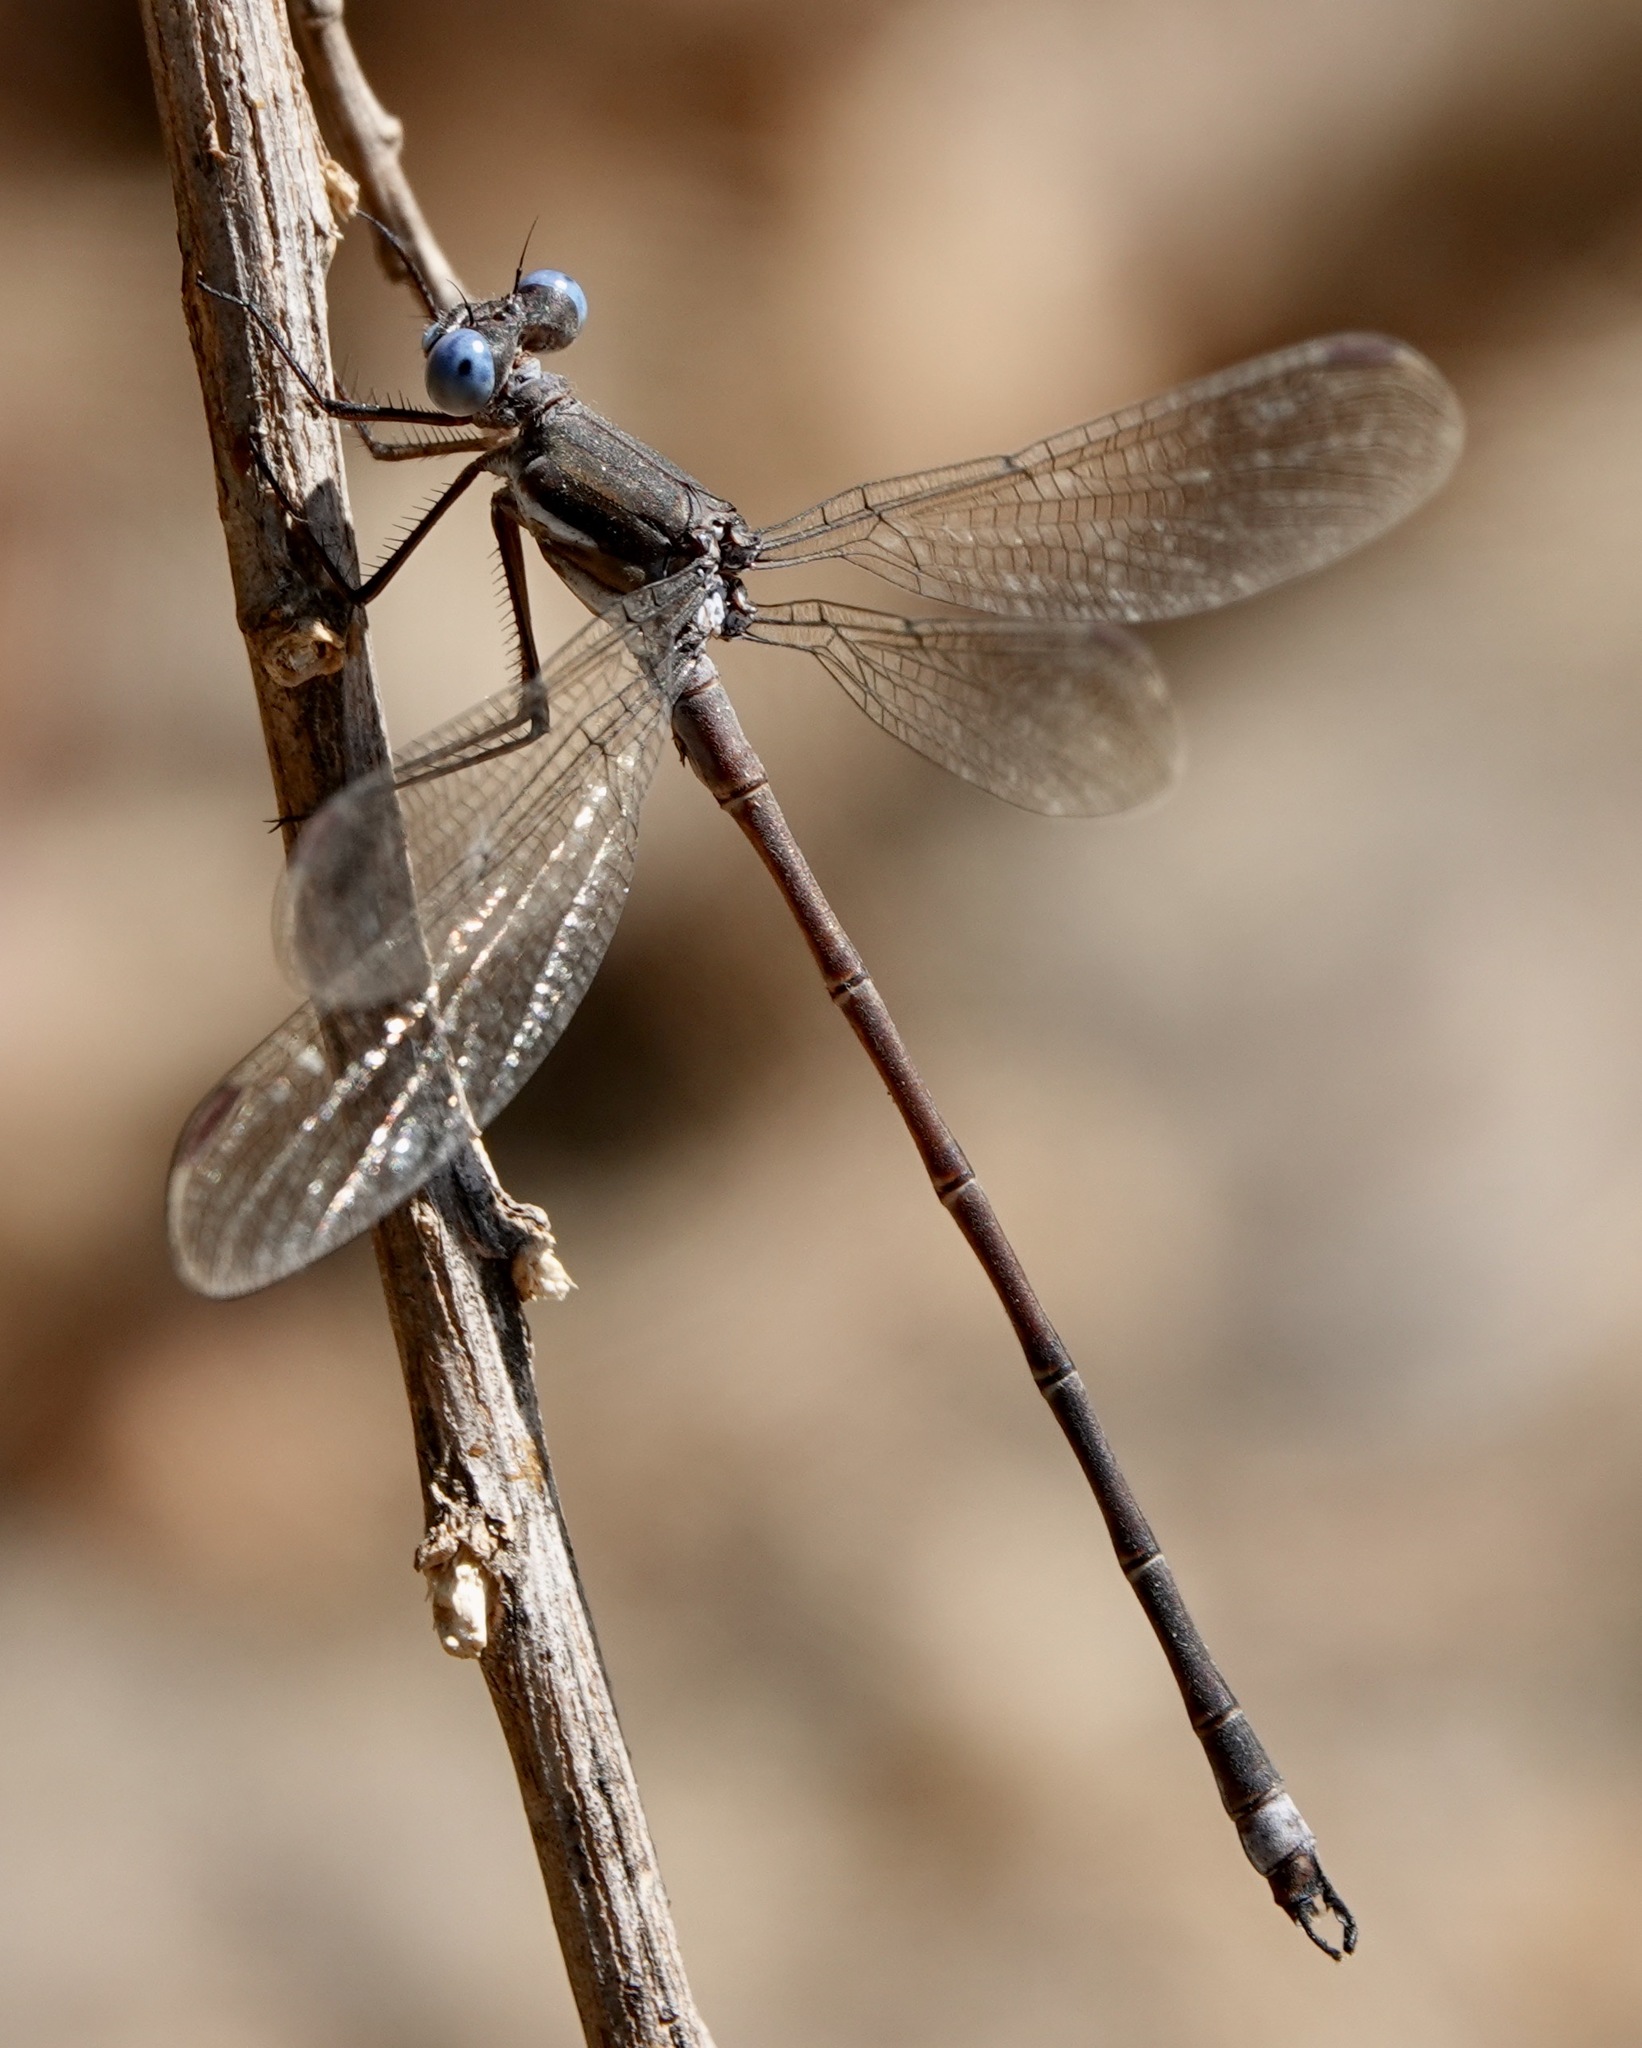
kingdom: Animalia
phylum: Arthropoda
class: Insecta
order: Odonata
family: Lestidae
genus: Archilestes
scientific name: Archilestes californicus
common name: California spreadwing
